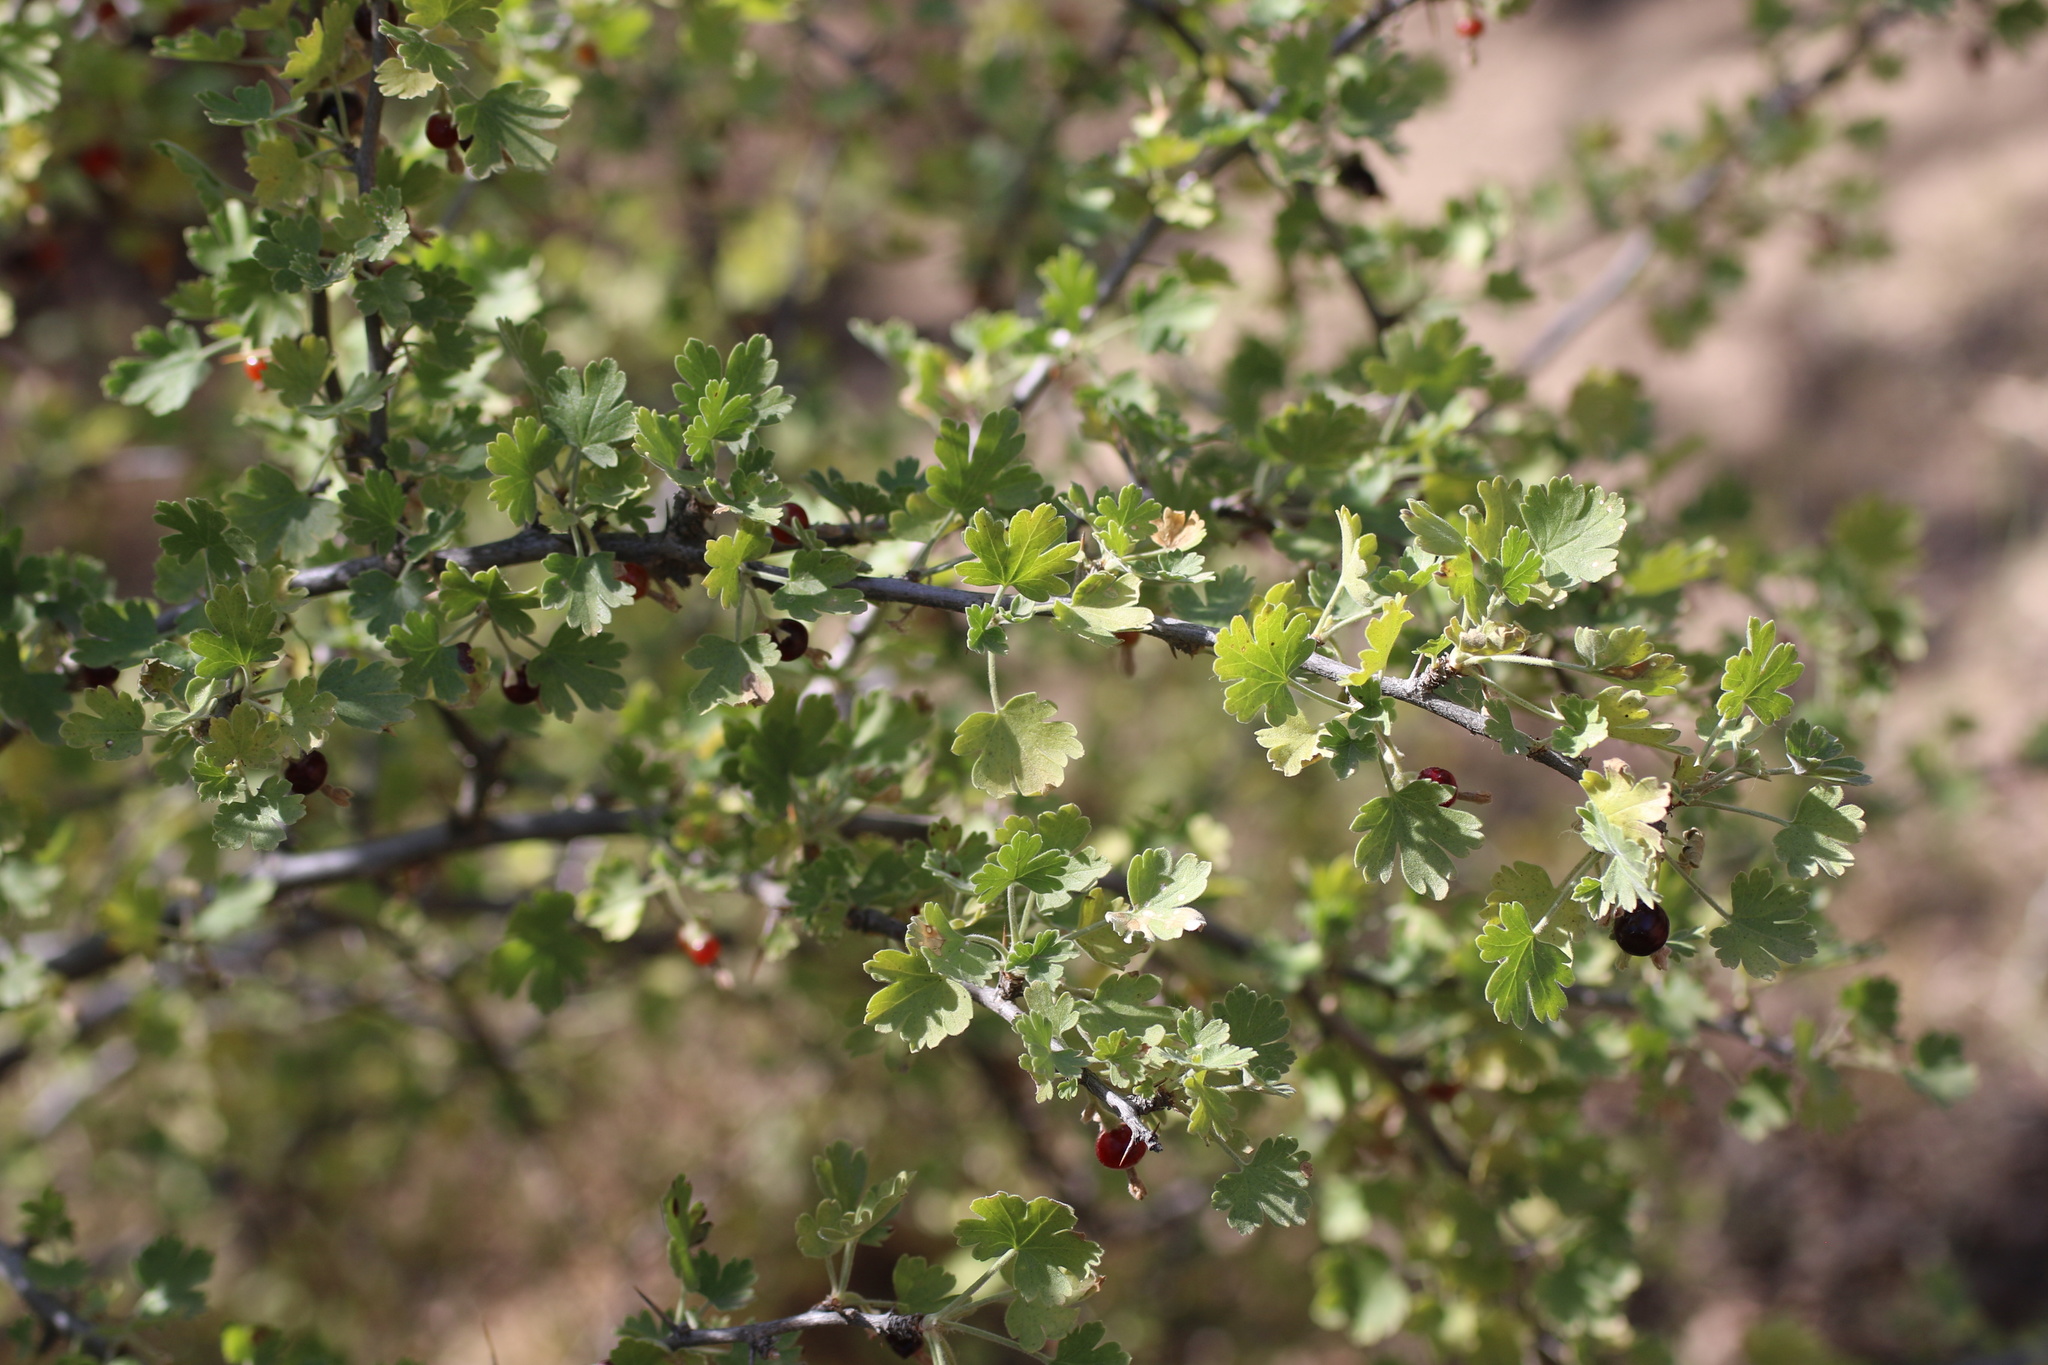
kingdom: Plantae
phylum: Tracheophyta
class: Magnoliopsida
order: Saxifragales
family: Grossulariaceae
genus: Ribes
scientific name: Ribes quercetorum
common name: Oak gooseberry
